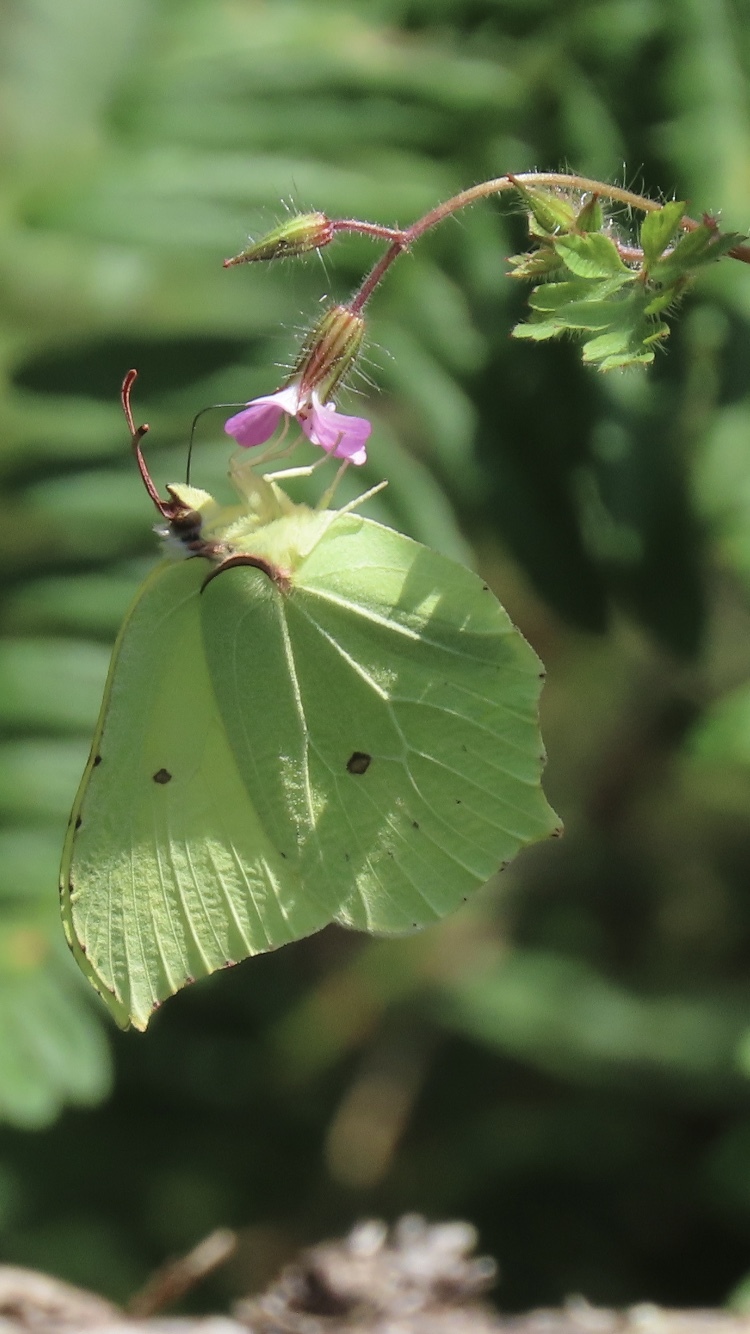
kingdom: Animalia
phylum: Arthropoda
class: Insecta
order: Lepidoptera
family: Pieridae
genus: Gonepteryx
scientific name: Gonepteryx rhamni
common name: Brimstone
